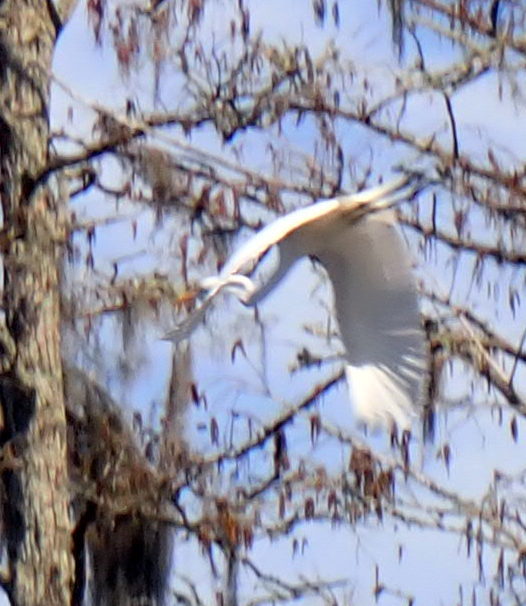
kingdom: Animalia
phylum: Chordata
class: Aves
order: Pelecaniformes
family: Ardeidae
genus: Ardea
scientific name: Ardea alba
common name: Great egret
